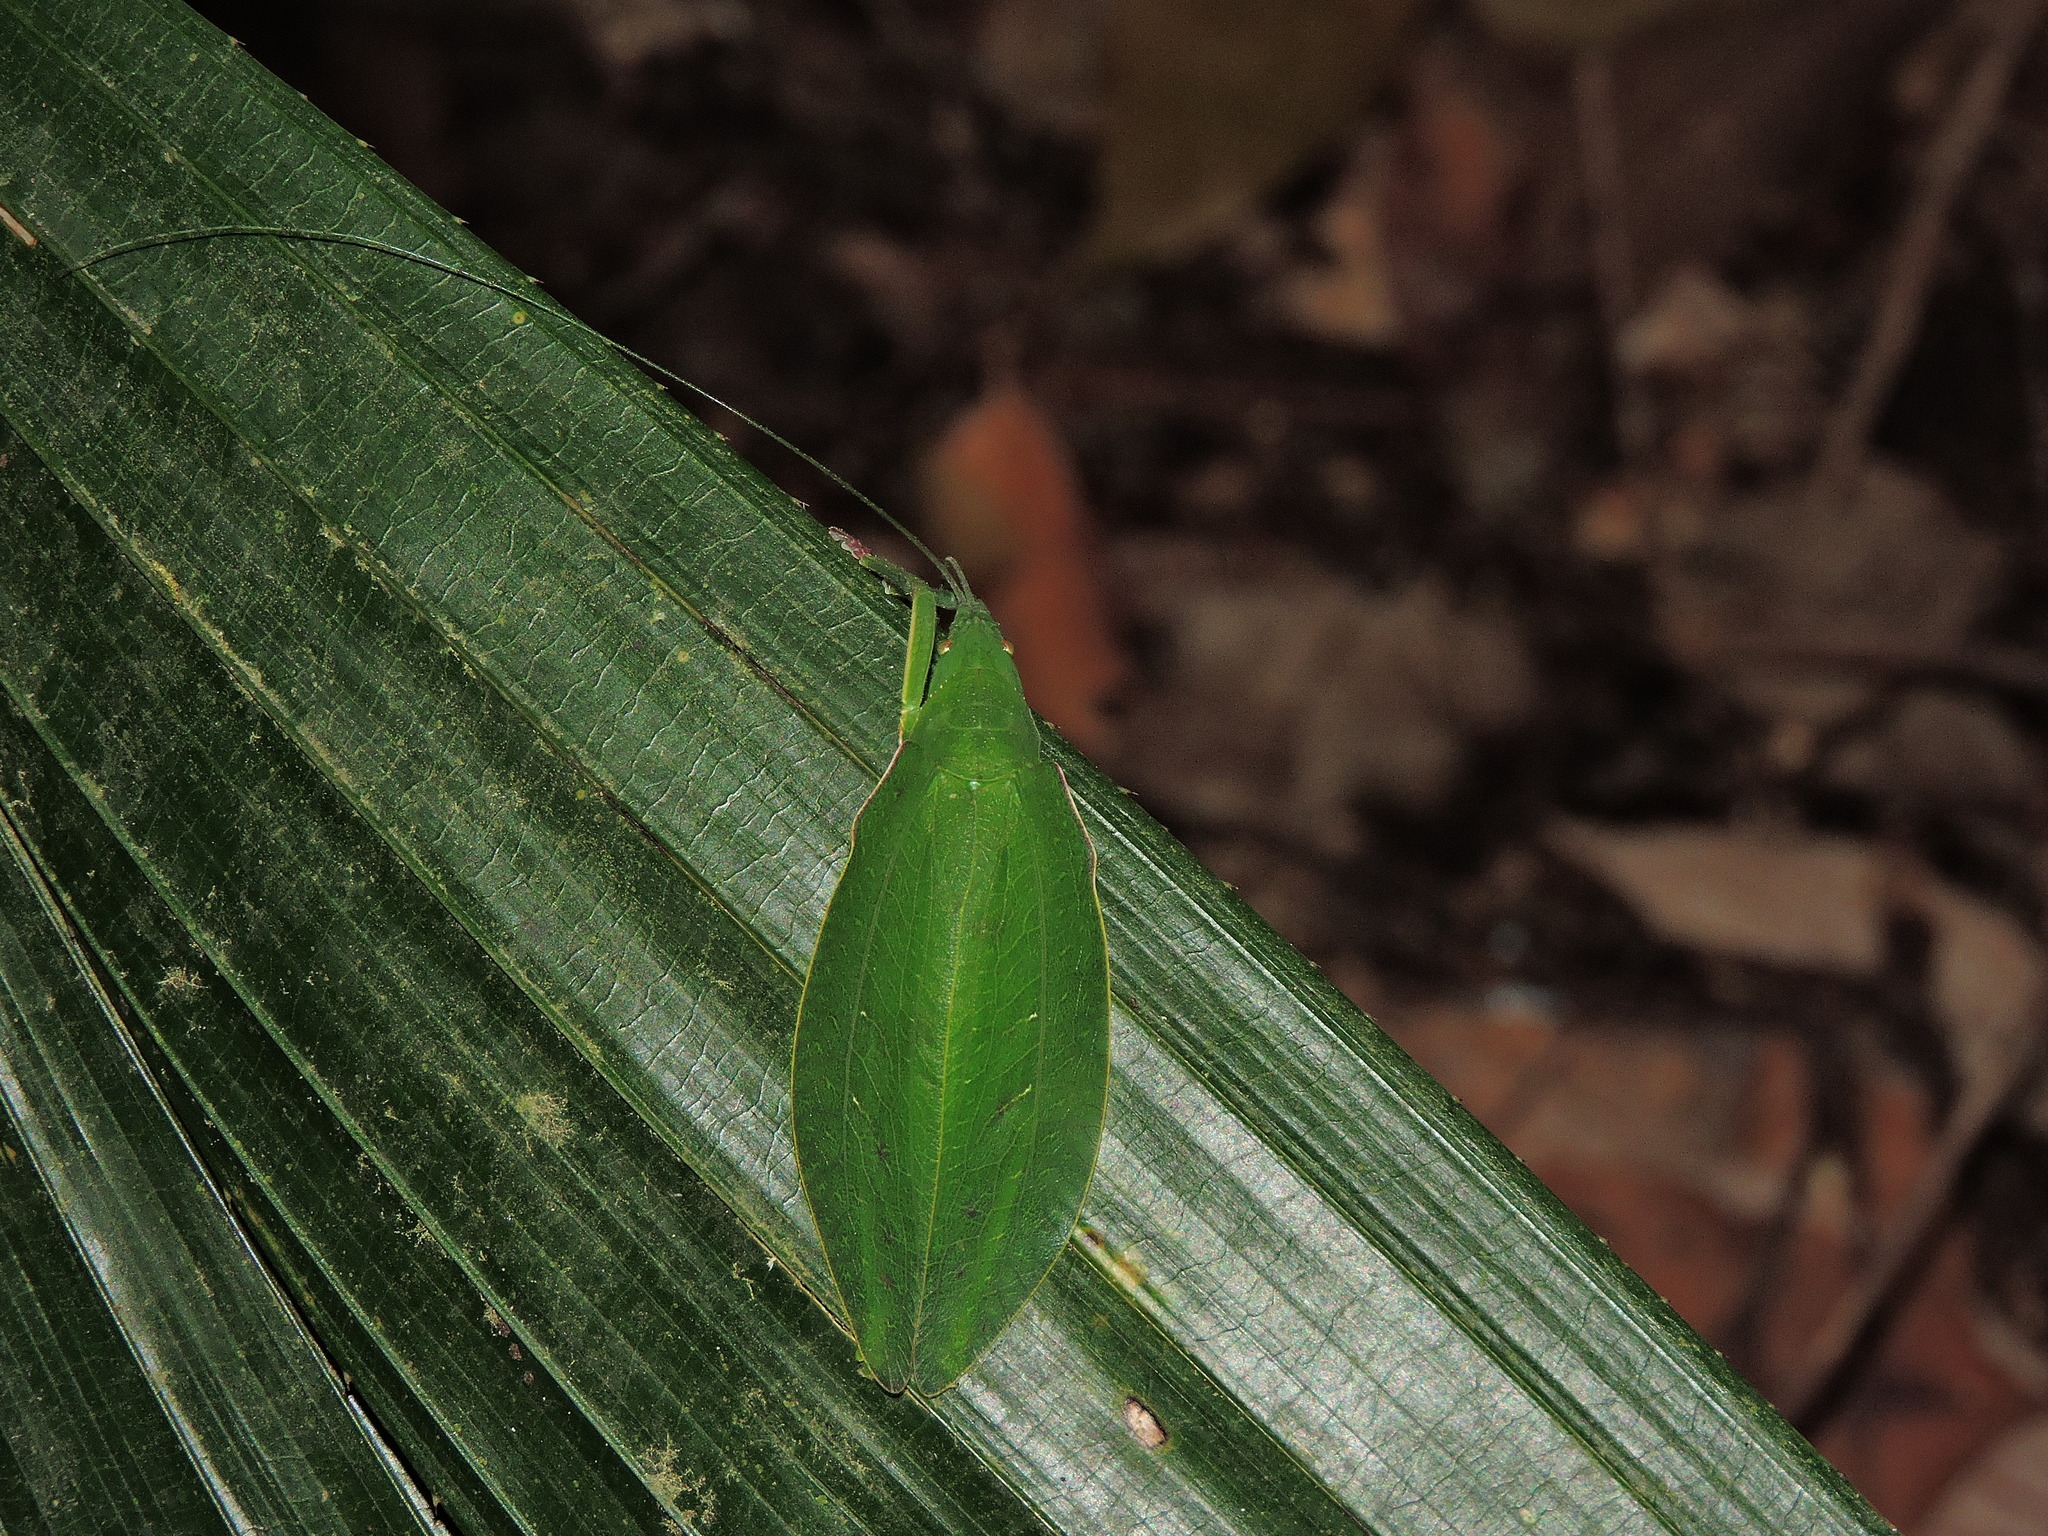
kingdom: Animalia
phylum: Arthropoda
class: Insecta
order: Orthoptera
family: Tettigoniidae
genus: Phyllomimus
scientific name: Phyllomimus sinicus
